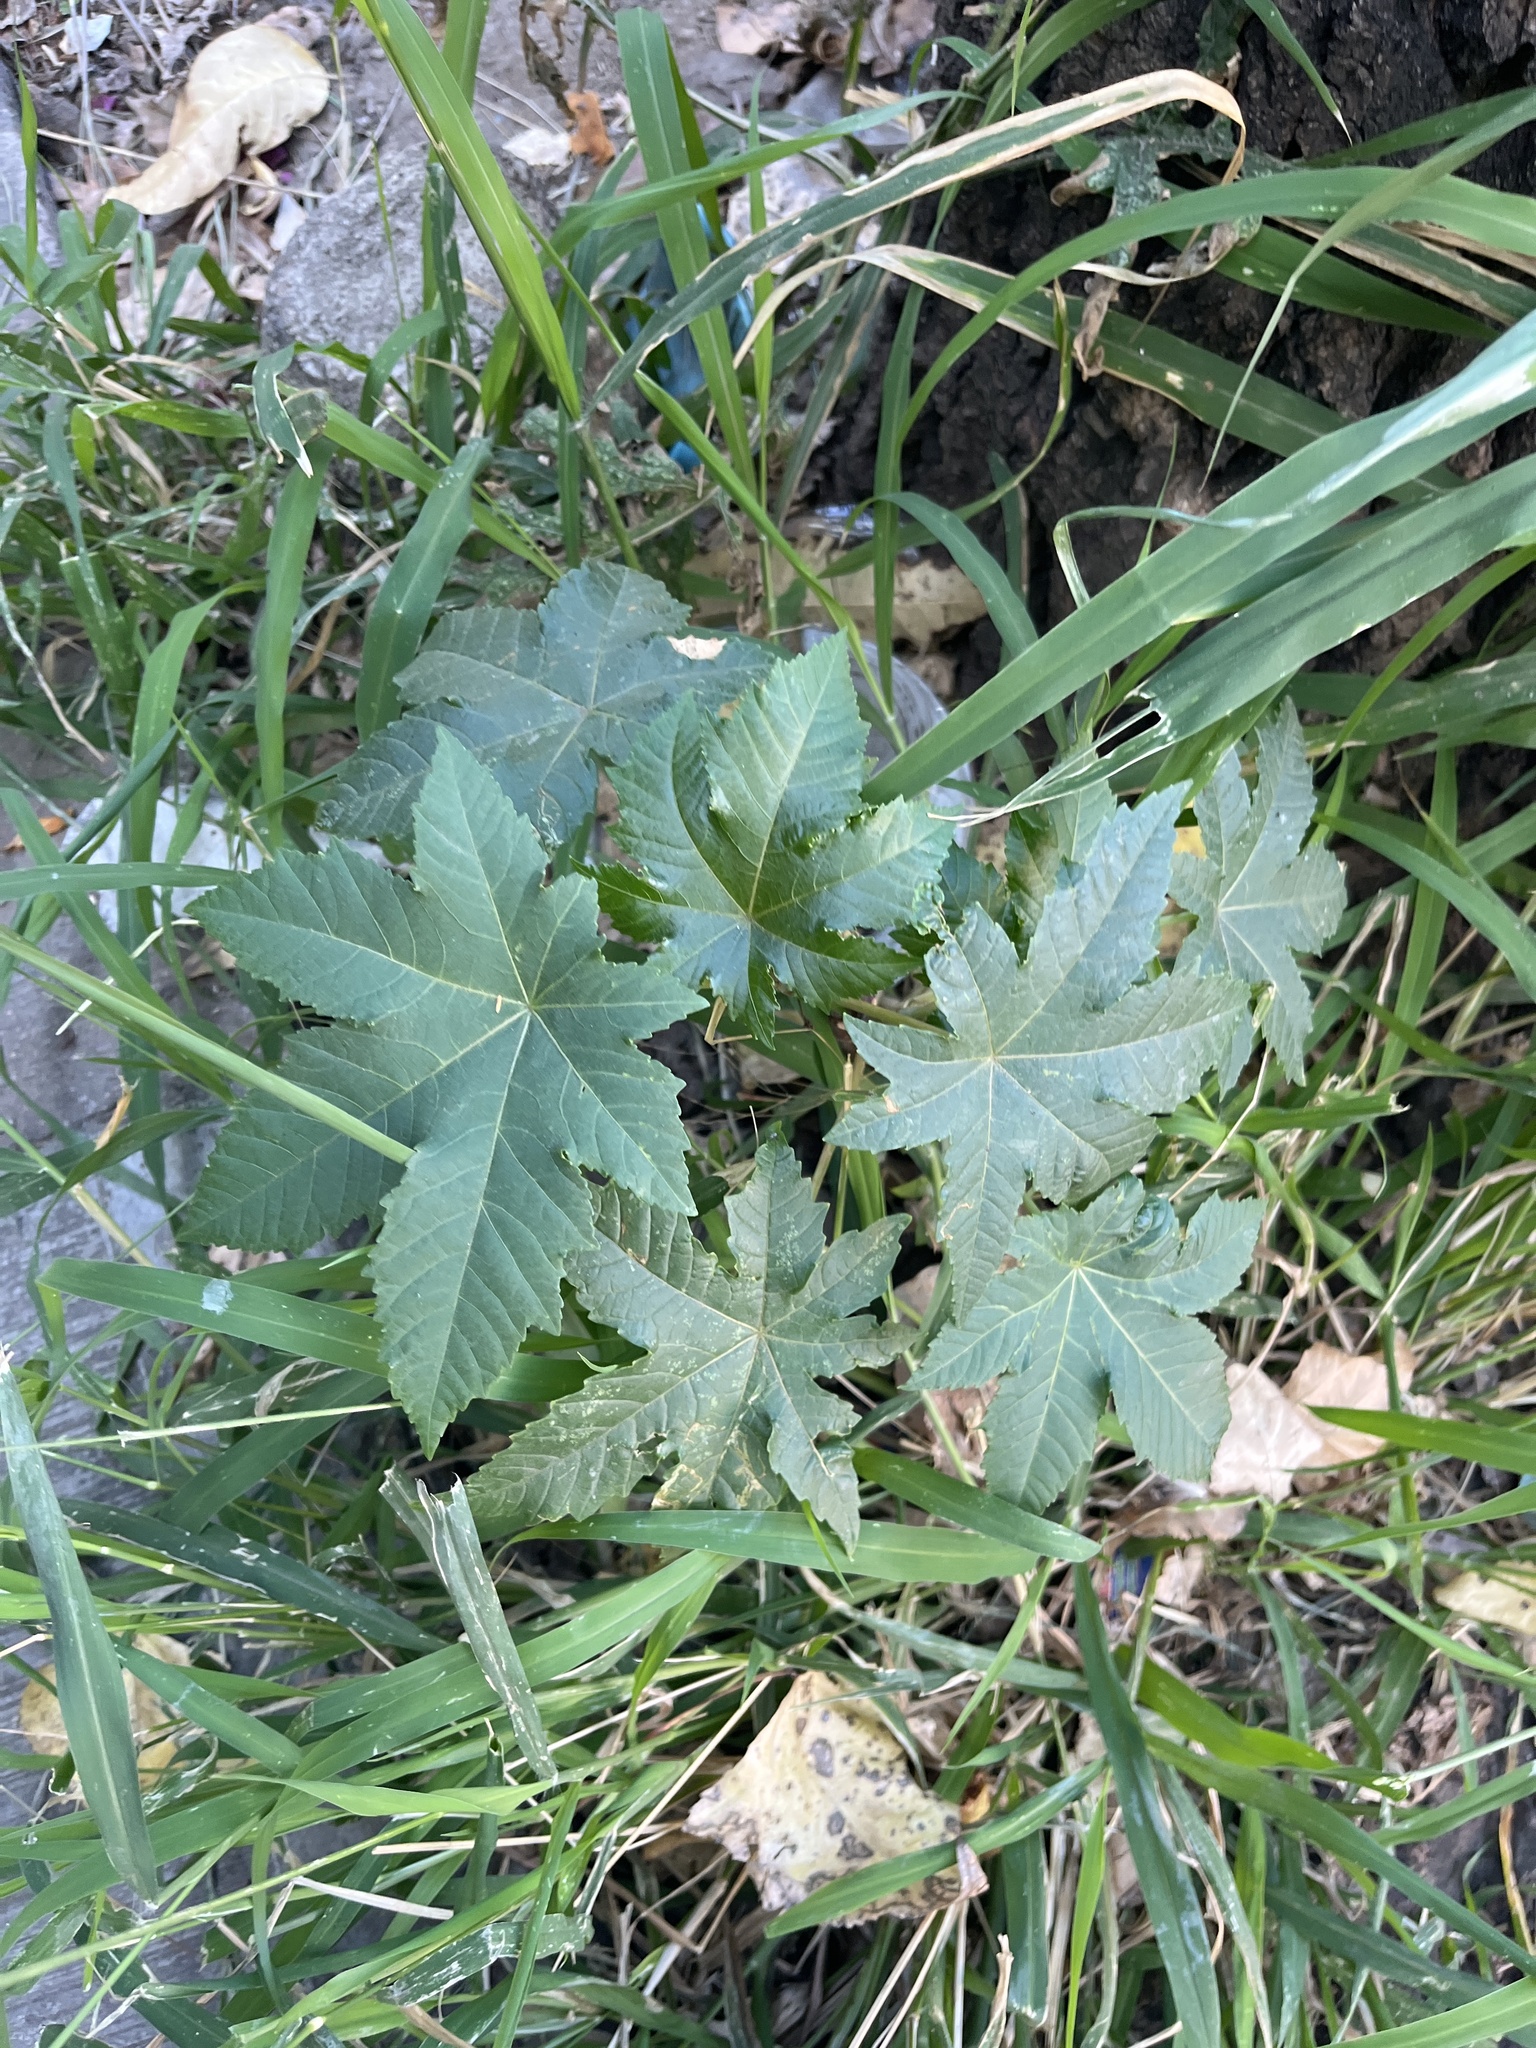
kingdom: Plantae
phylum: Tracheophyta
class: Magnoliopsida
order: Malpighiales
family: Euphorbiaceae
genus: Ricinus
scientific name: Ricinus communis
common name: Castor-oil-plant
